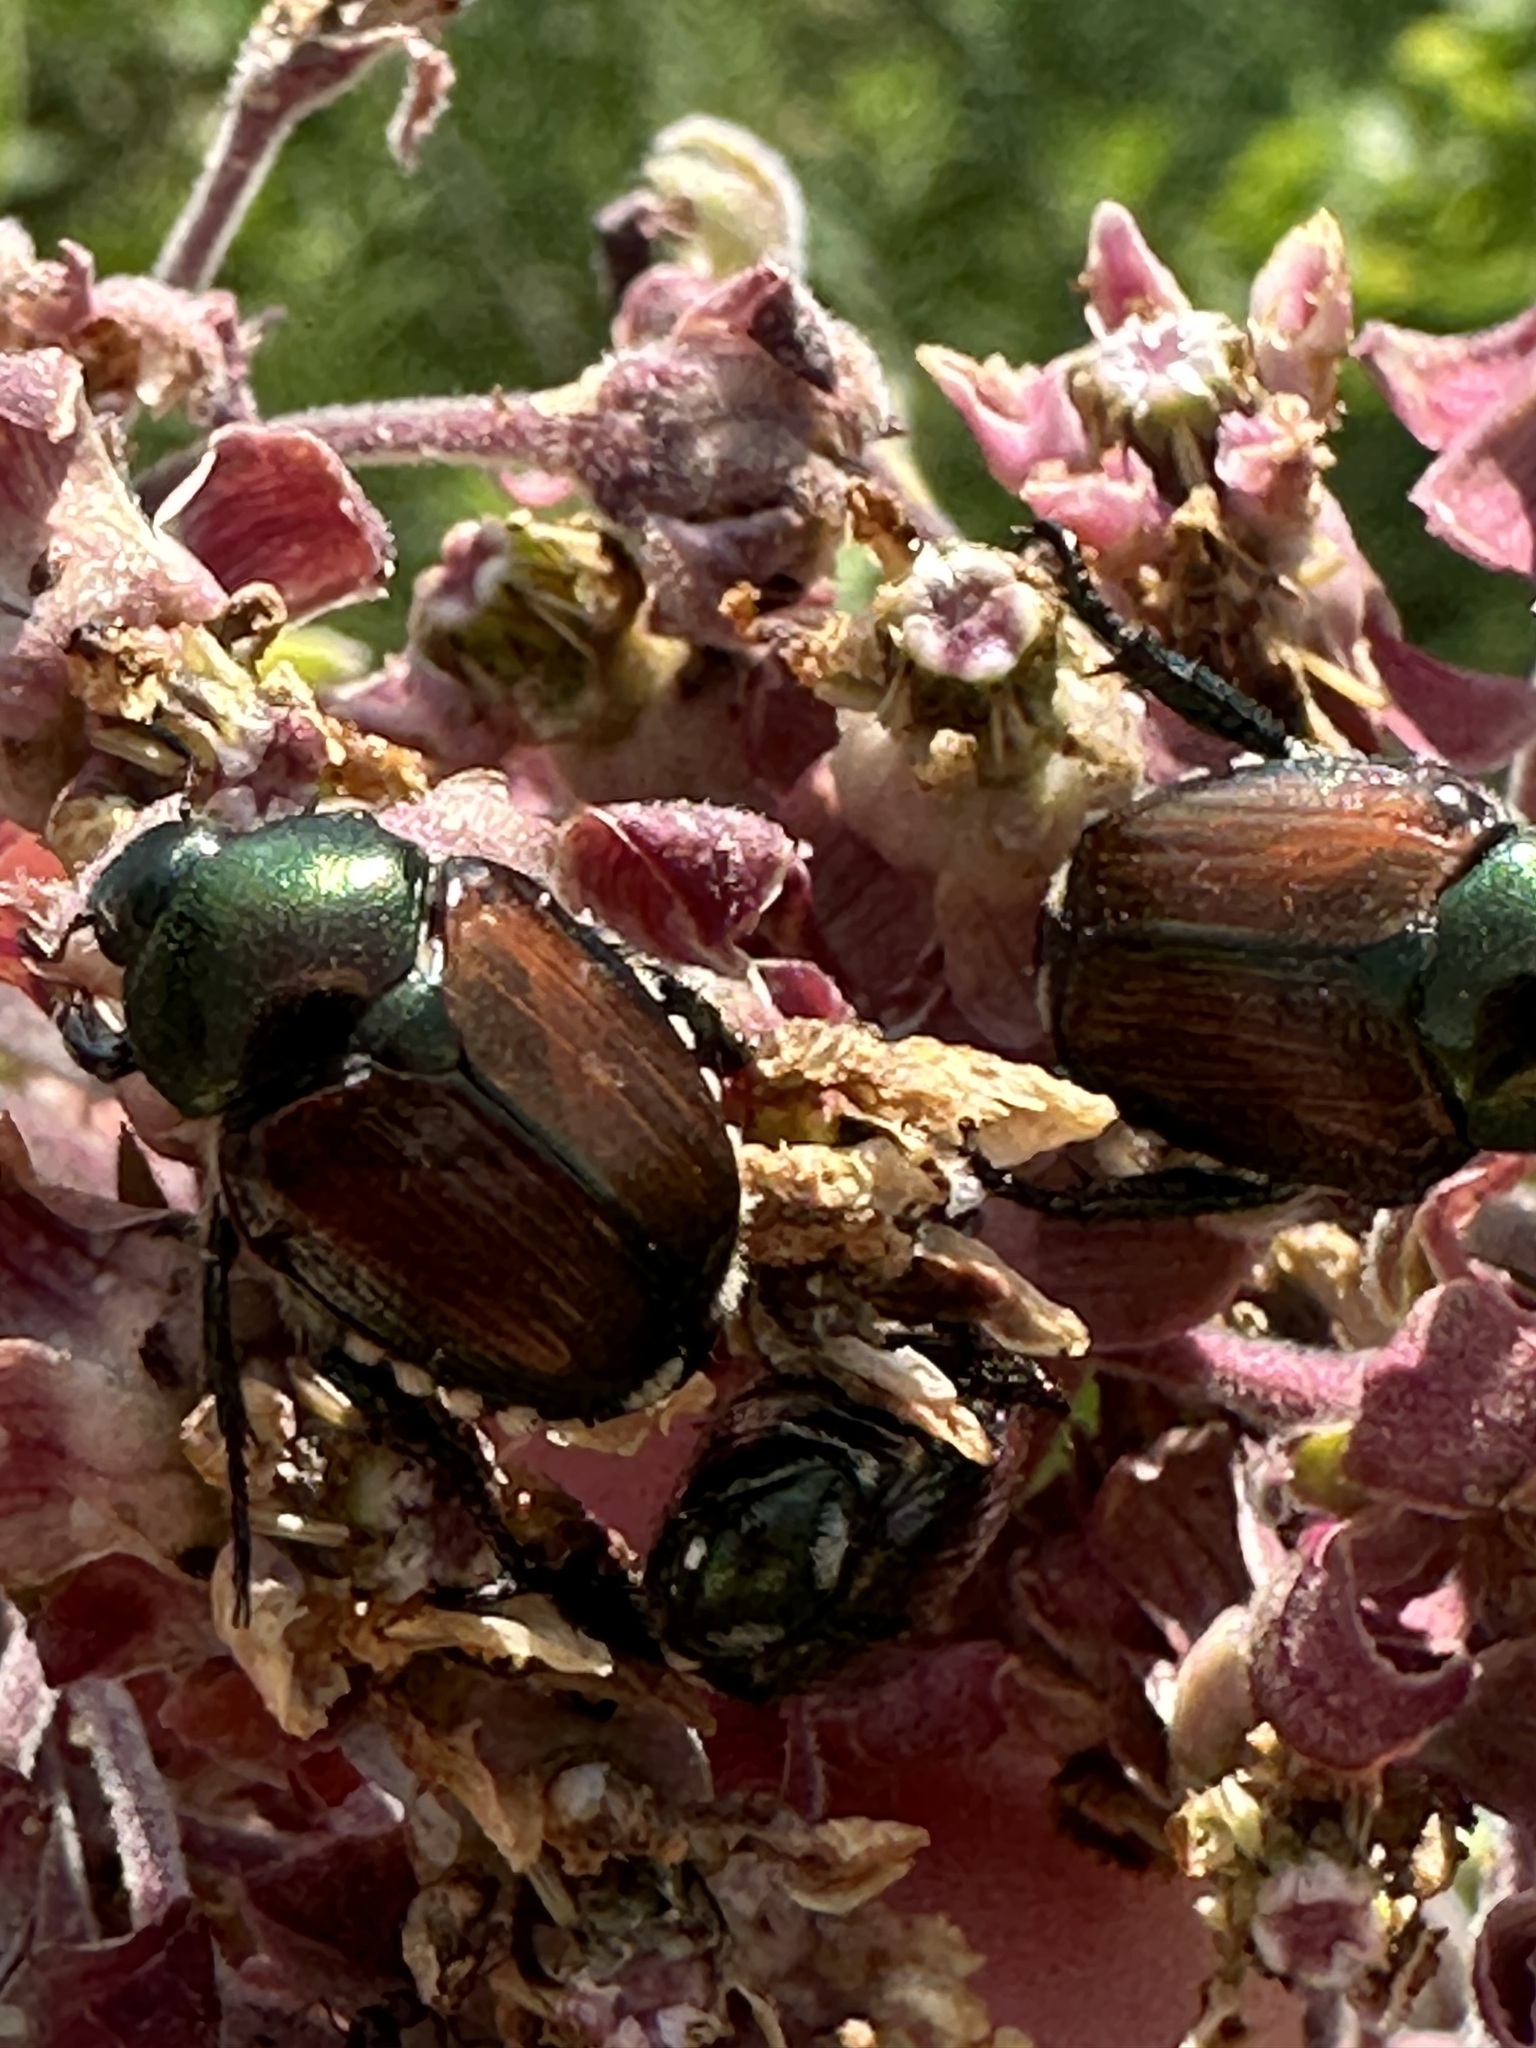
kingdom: Animalia
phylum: Arthropoda
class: Insecta
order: Coleoptera
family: Scarabaeidae
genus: Popillia
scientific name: Popillia japonica
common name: Japanese beetle
